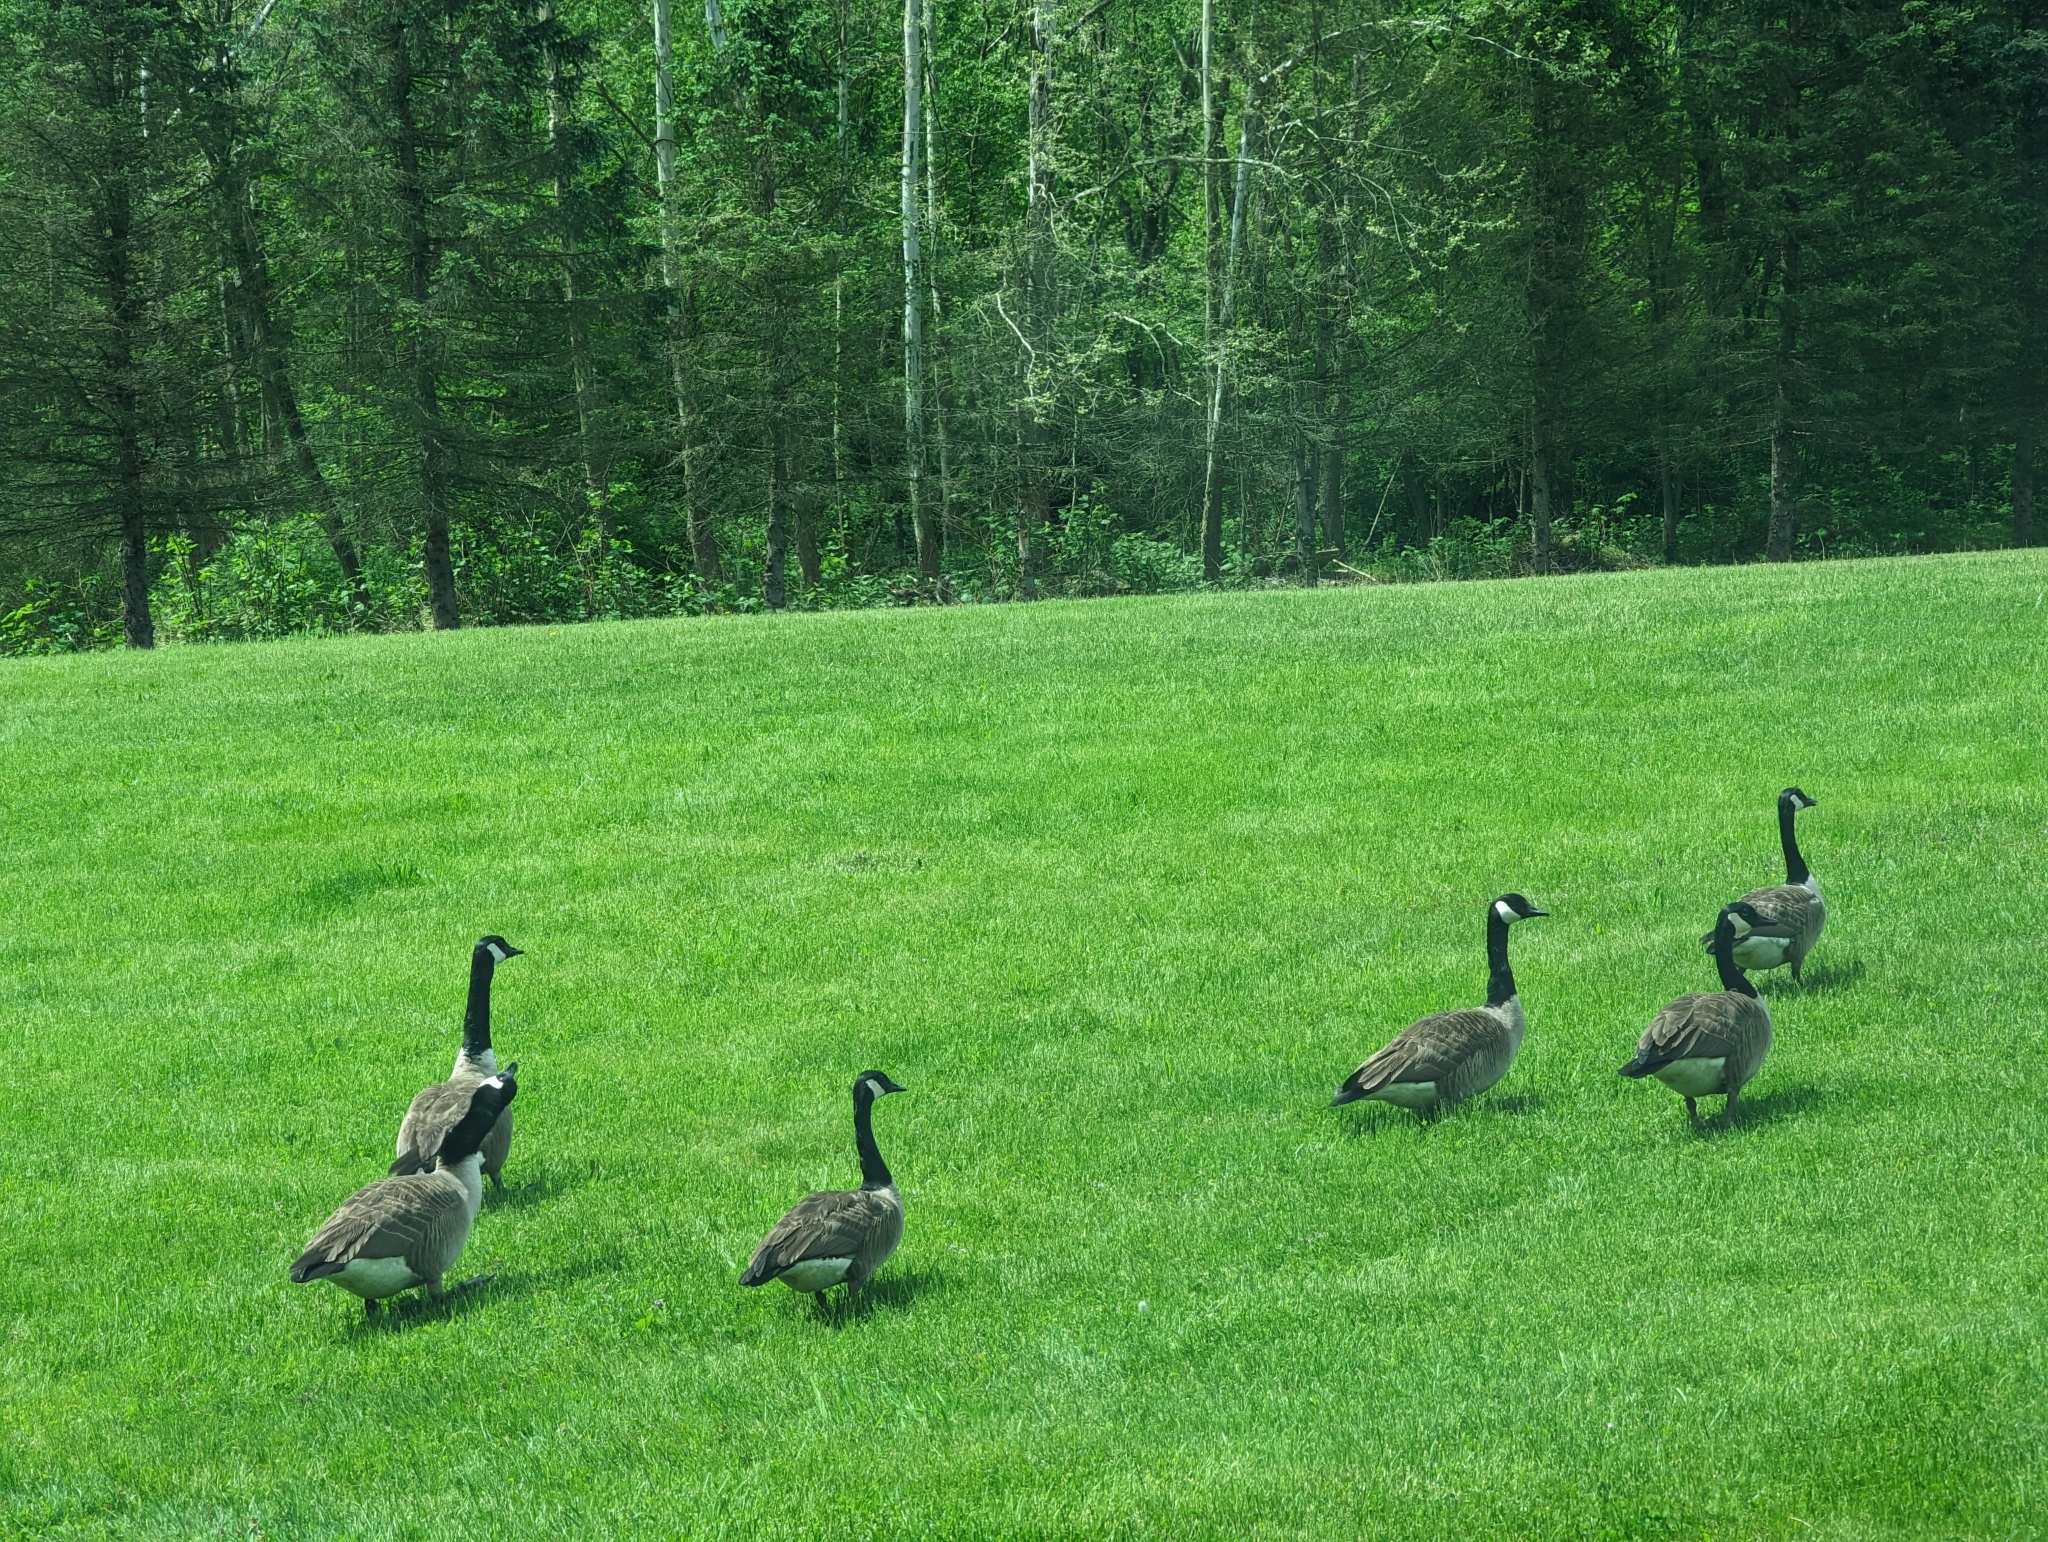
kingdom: Animalia
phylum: Chordata
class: Aves
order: Anseriformes
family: Anatidae
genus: Branta
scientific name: Branta canadensis
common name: Canada goose
